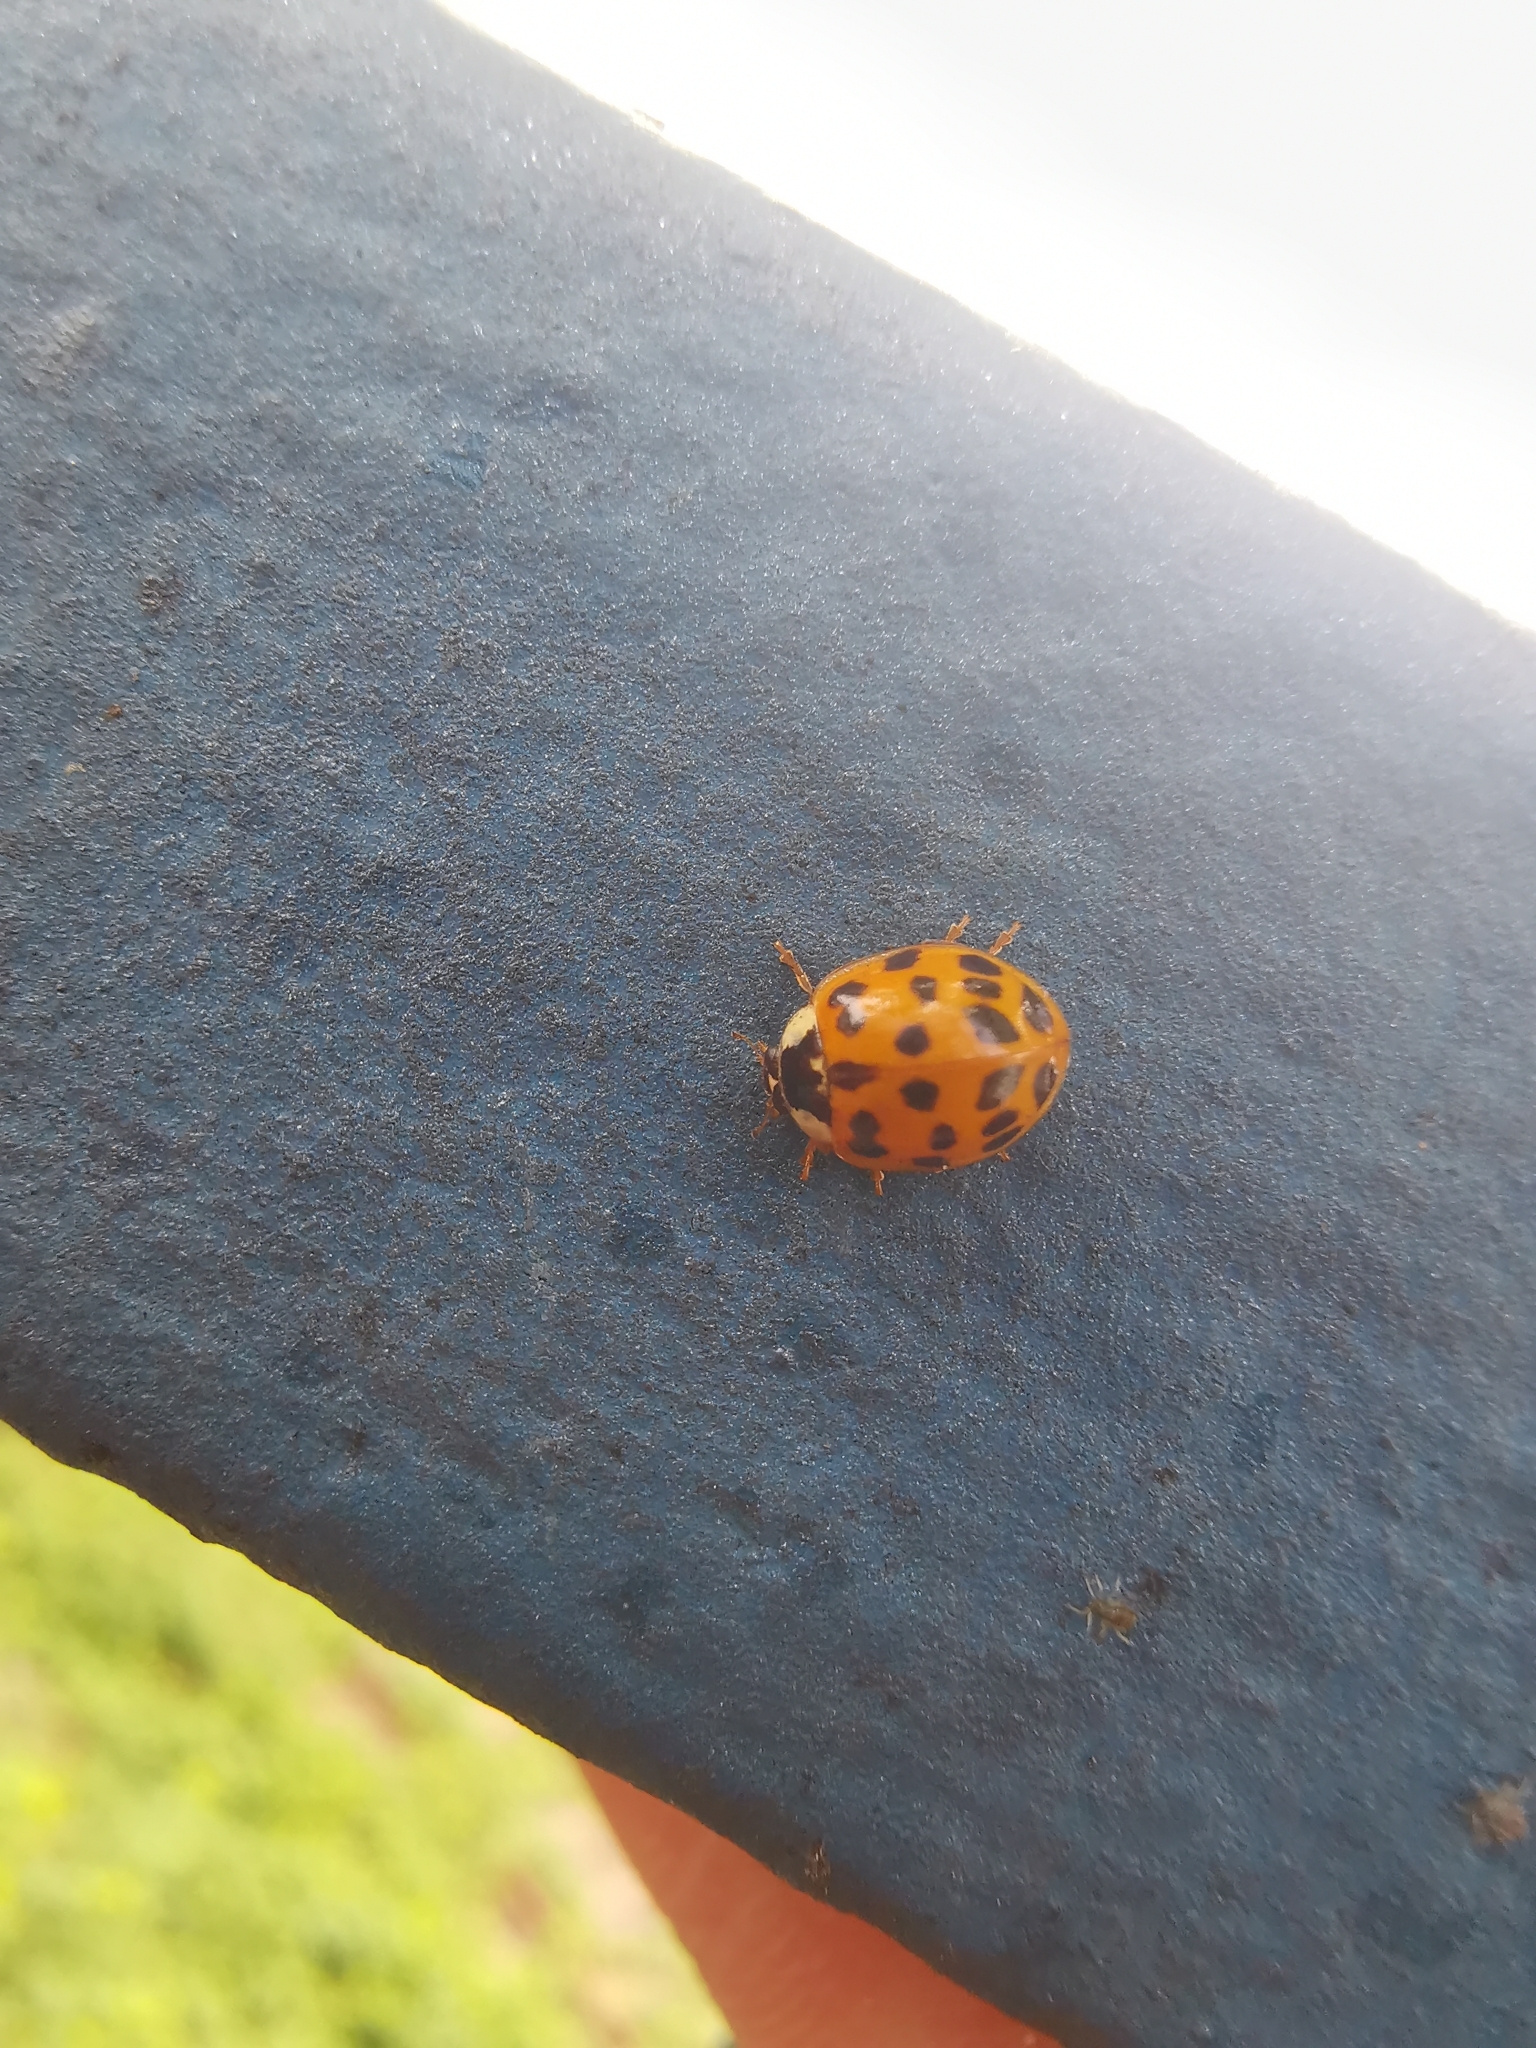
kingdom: Animalia
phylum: Arthropoda
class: Insecta
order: Coleoptera
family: Coccinellidae
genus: Harmonia
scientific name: Harmonia axyridis
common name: Harlequin ladybird
